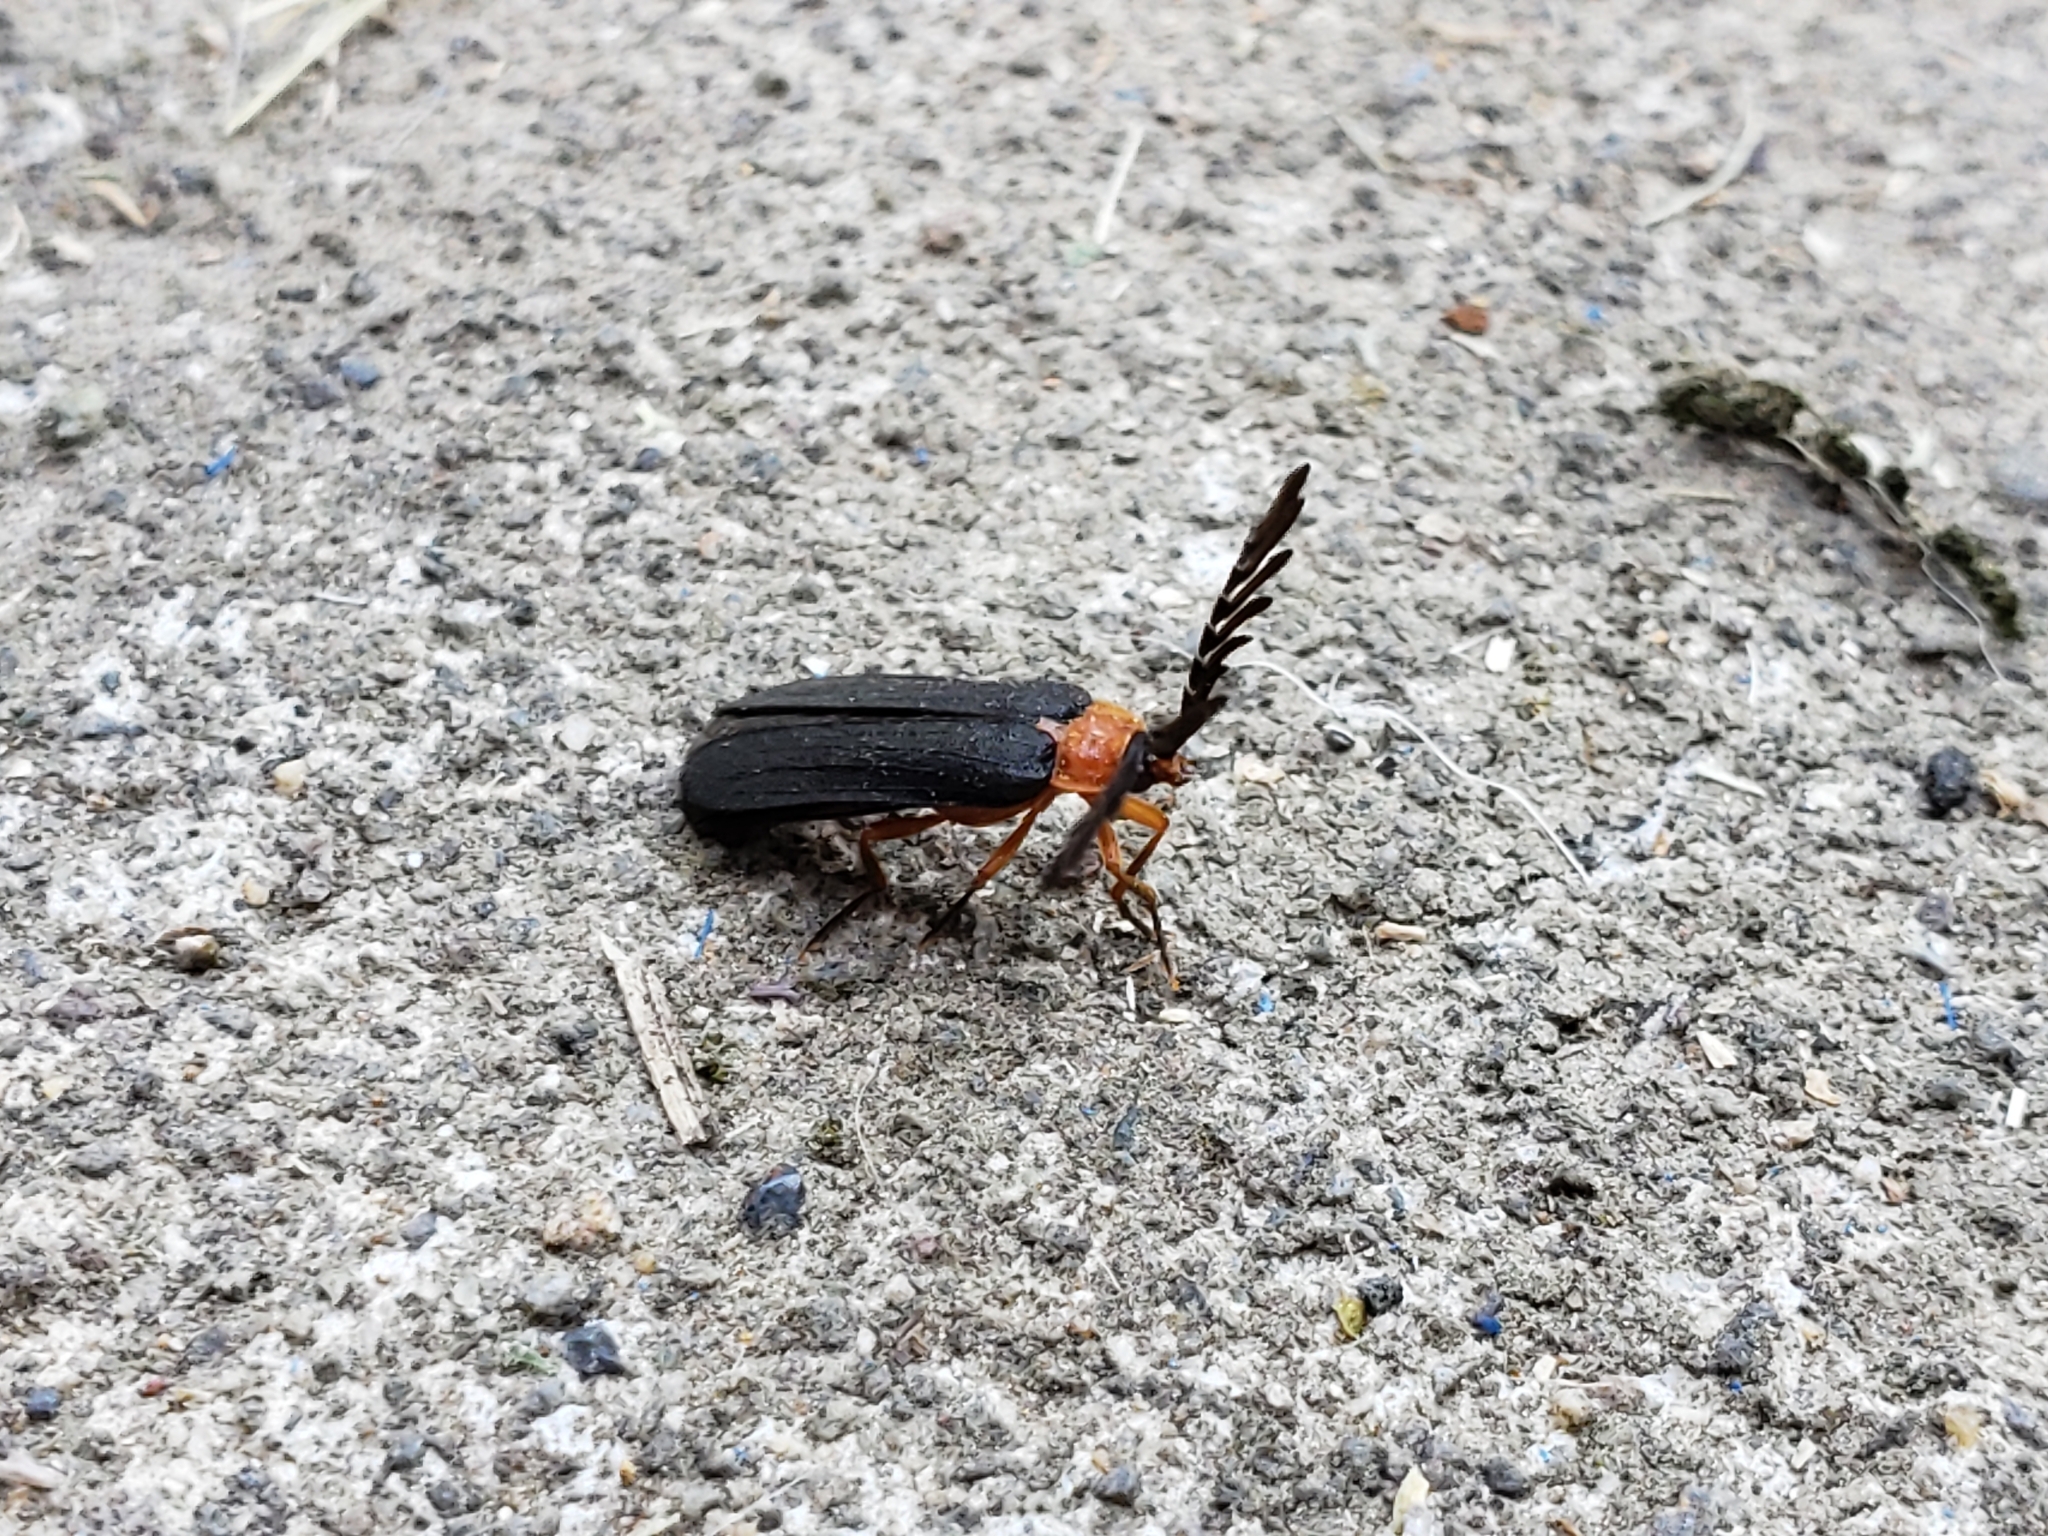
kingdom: Animalia
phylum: Arthropoda
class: Insecta
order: Coleoptera
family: Lampyridae
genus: Pterotus
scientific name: Pterotus obscuripennis
